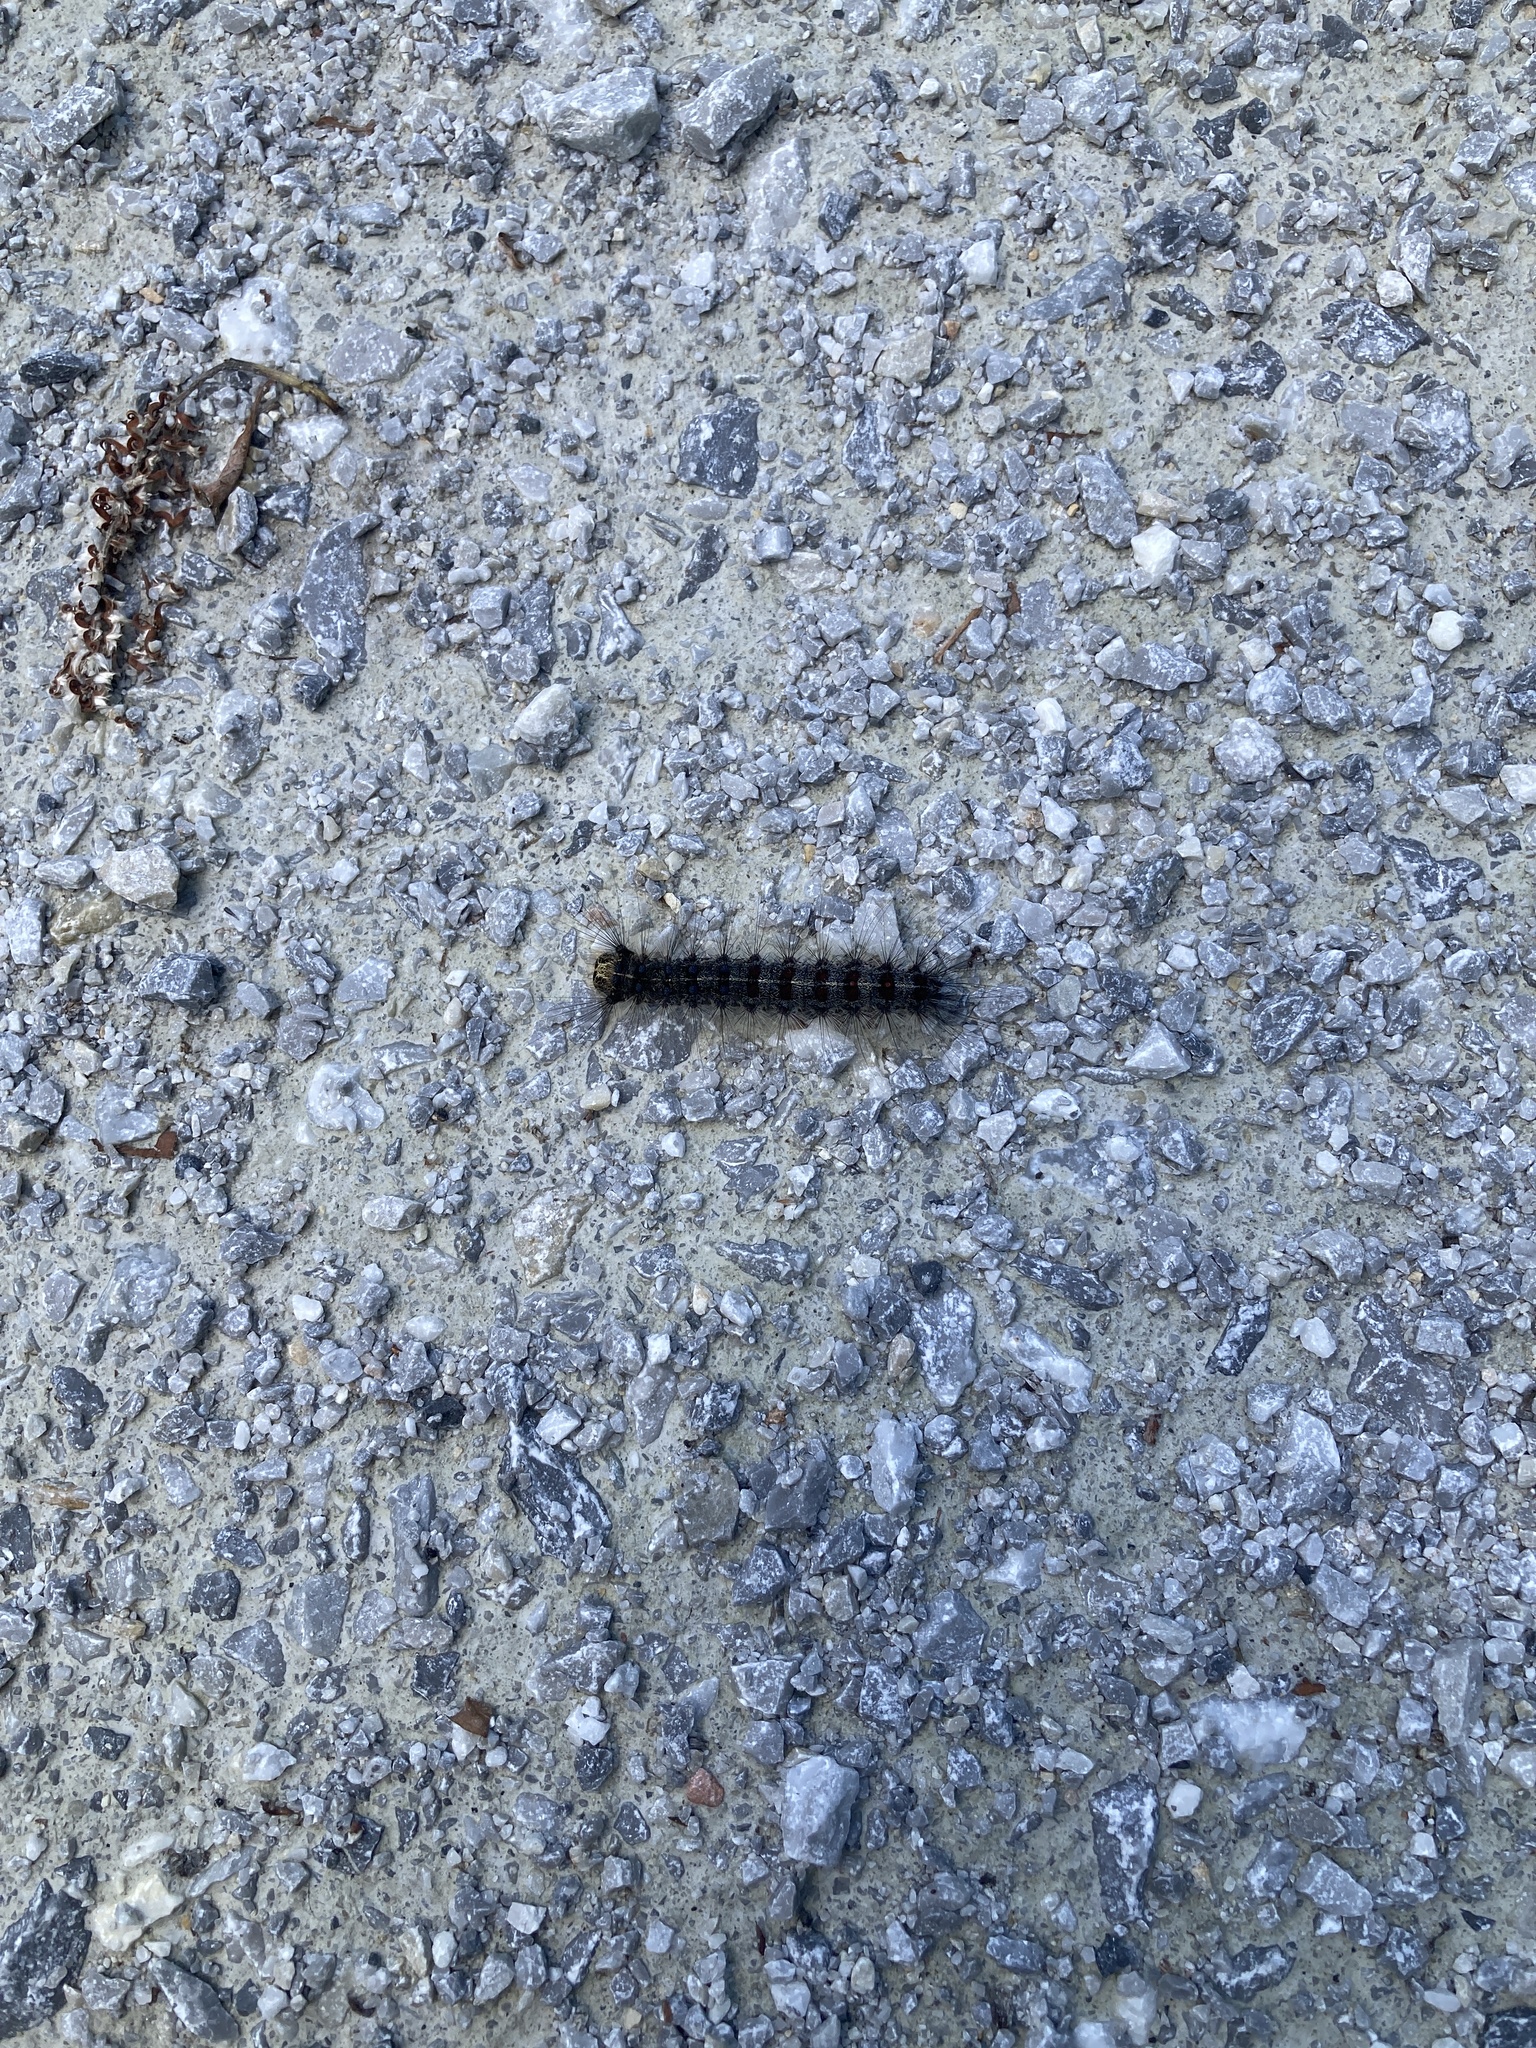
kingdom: Animalia
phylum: Arthropoda
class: Insecta
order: Lepidoptera
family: Erebidae
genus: Lymantria
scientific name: Lymantria dispar
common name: Gypsy moth
